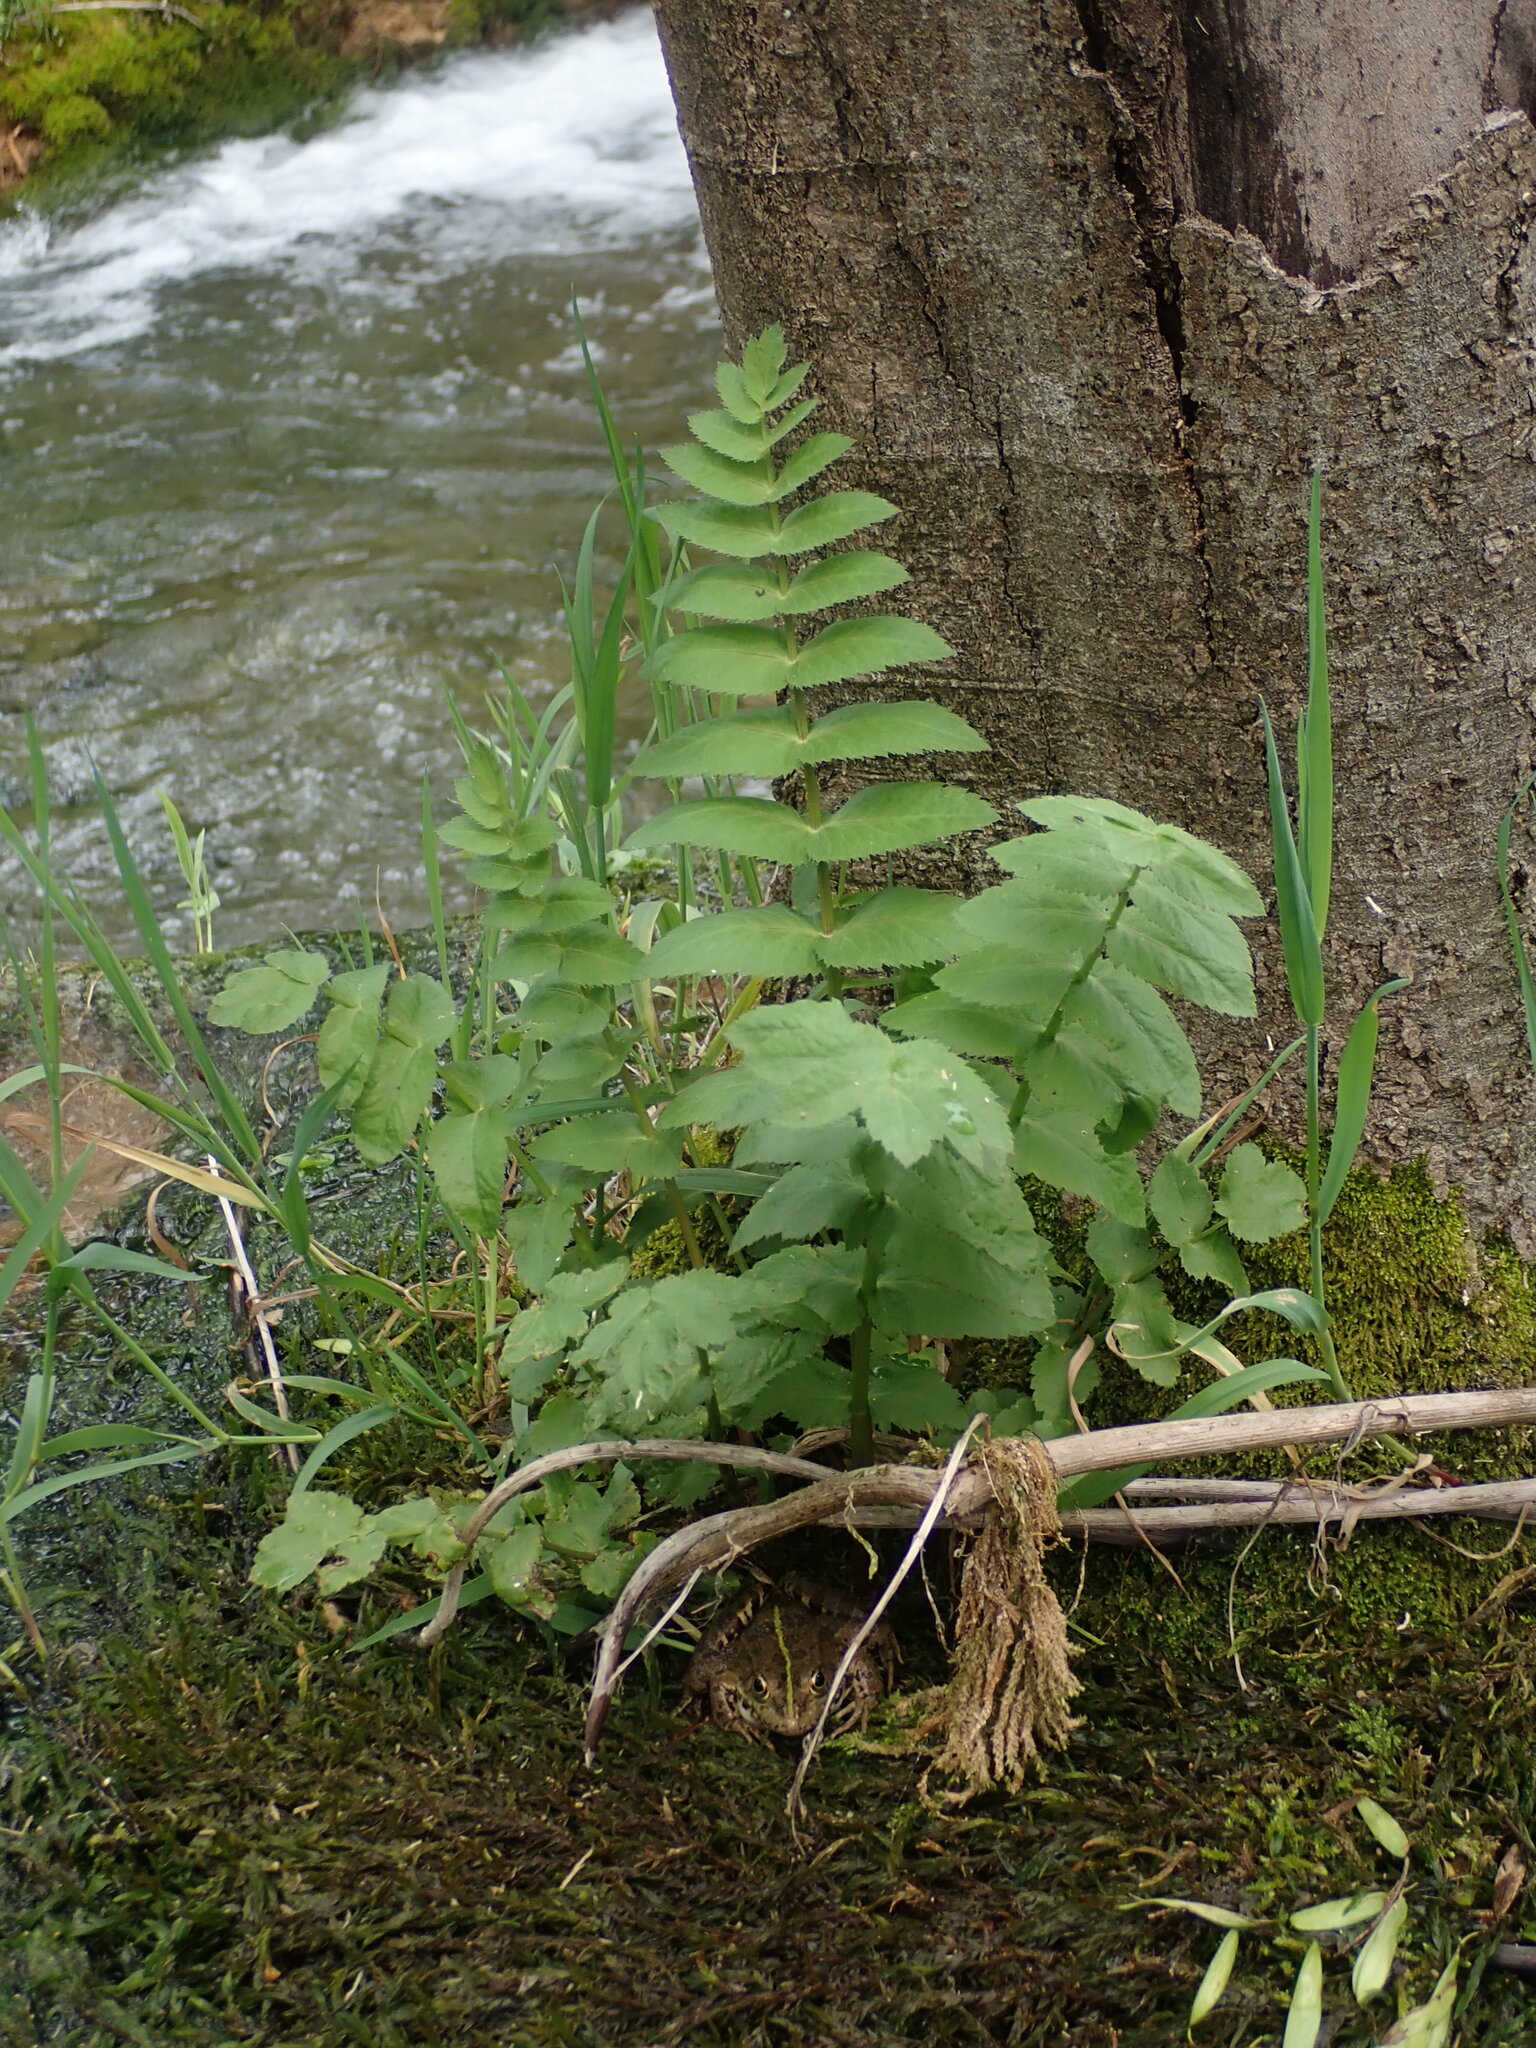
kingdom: Plantae
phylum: Tracheophyta
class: Magnoliopsida
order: Apiales
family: Apiaceae
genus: Berula
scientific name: Berula erecta
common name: Lesser water-parsnip
